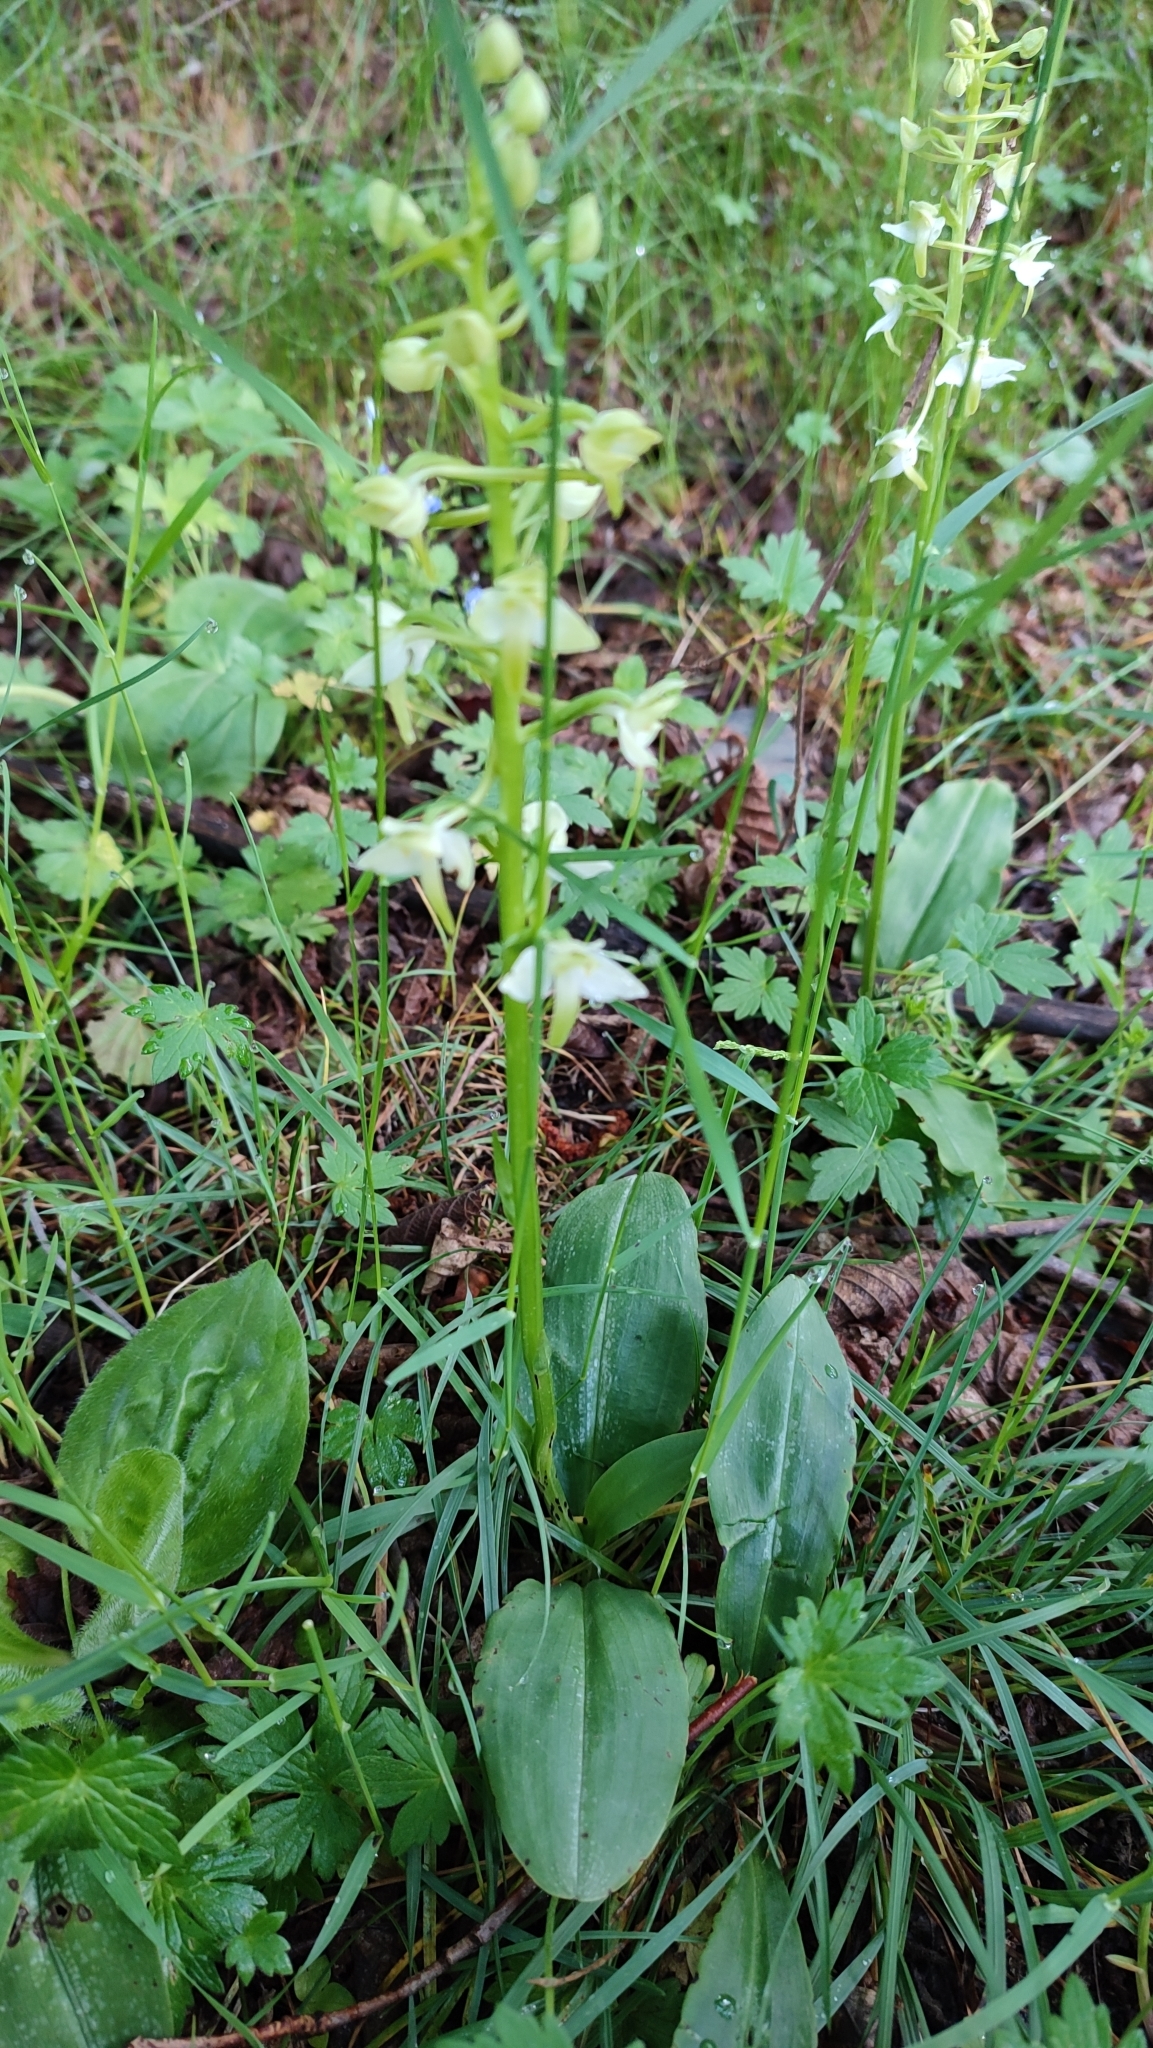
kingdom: Plantae
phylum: Tracheophyta
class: Liliopsida
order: Asparagales
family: Orchidaceae
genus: Platanthera
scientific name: Platanthera chlorantha
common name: Greater butterfly-orchid
